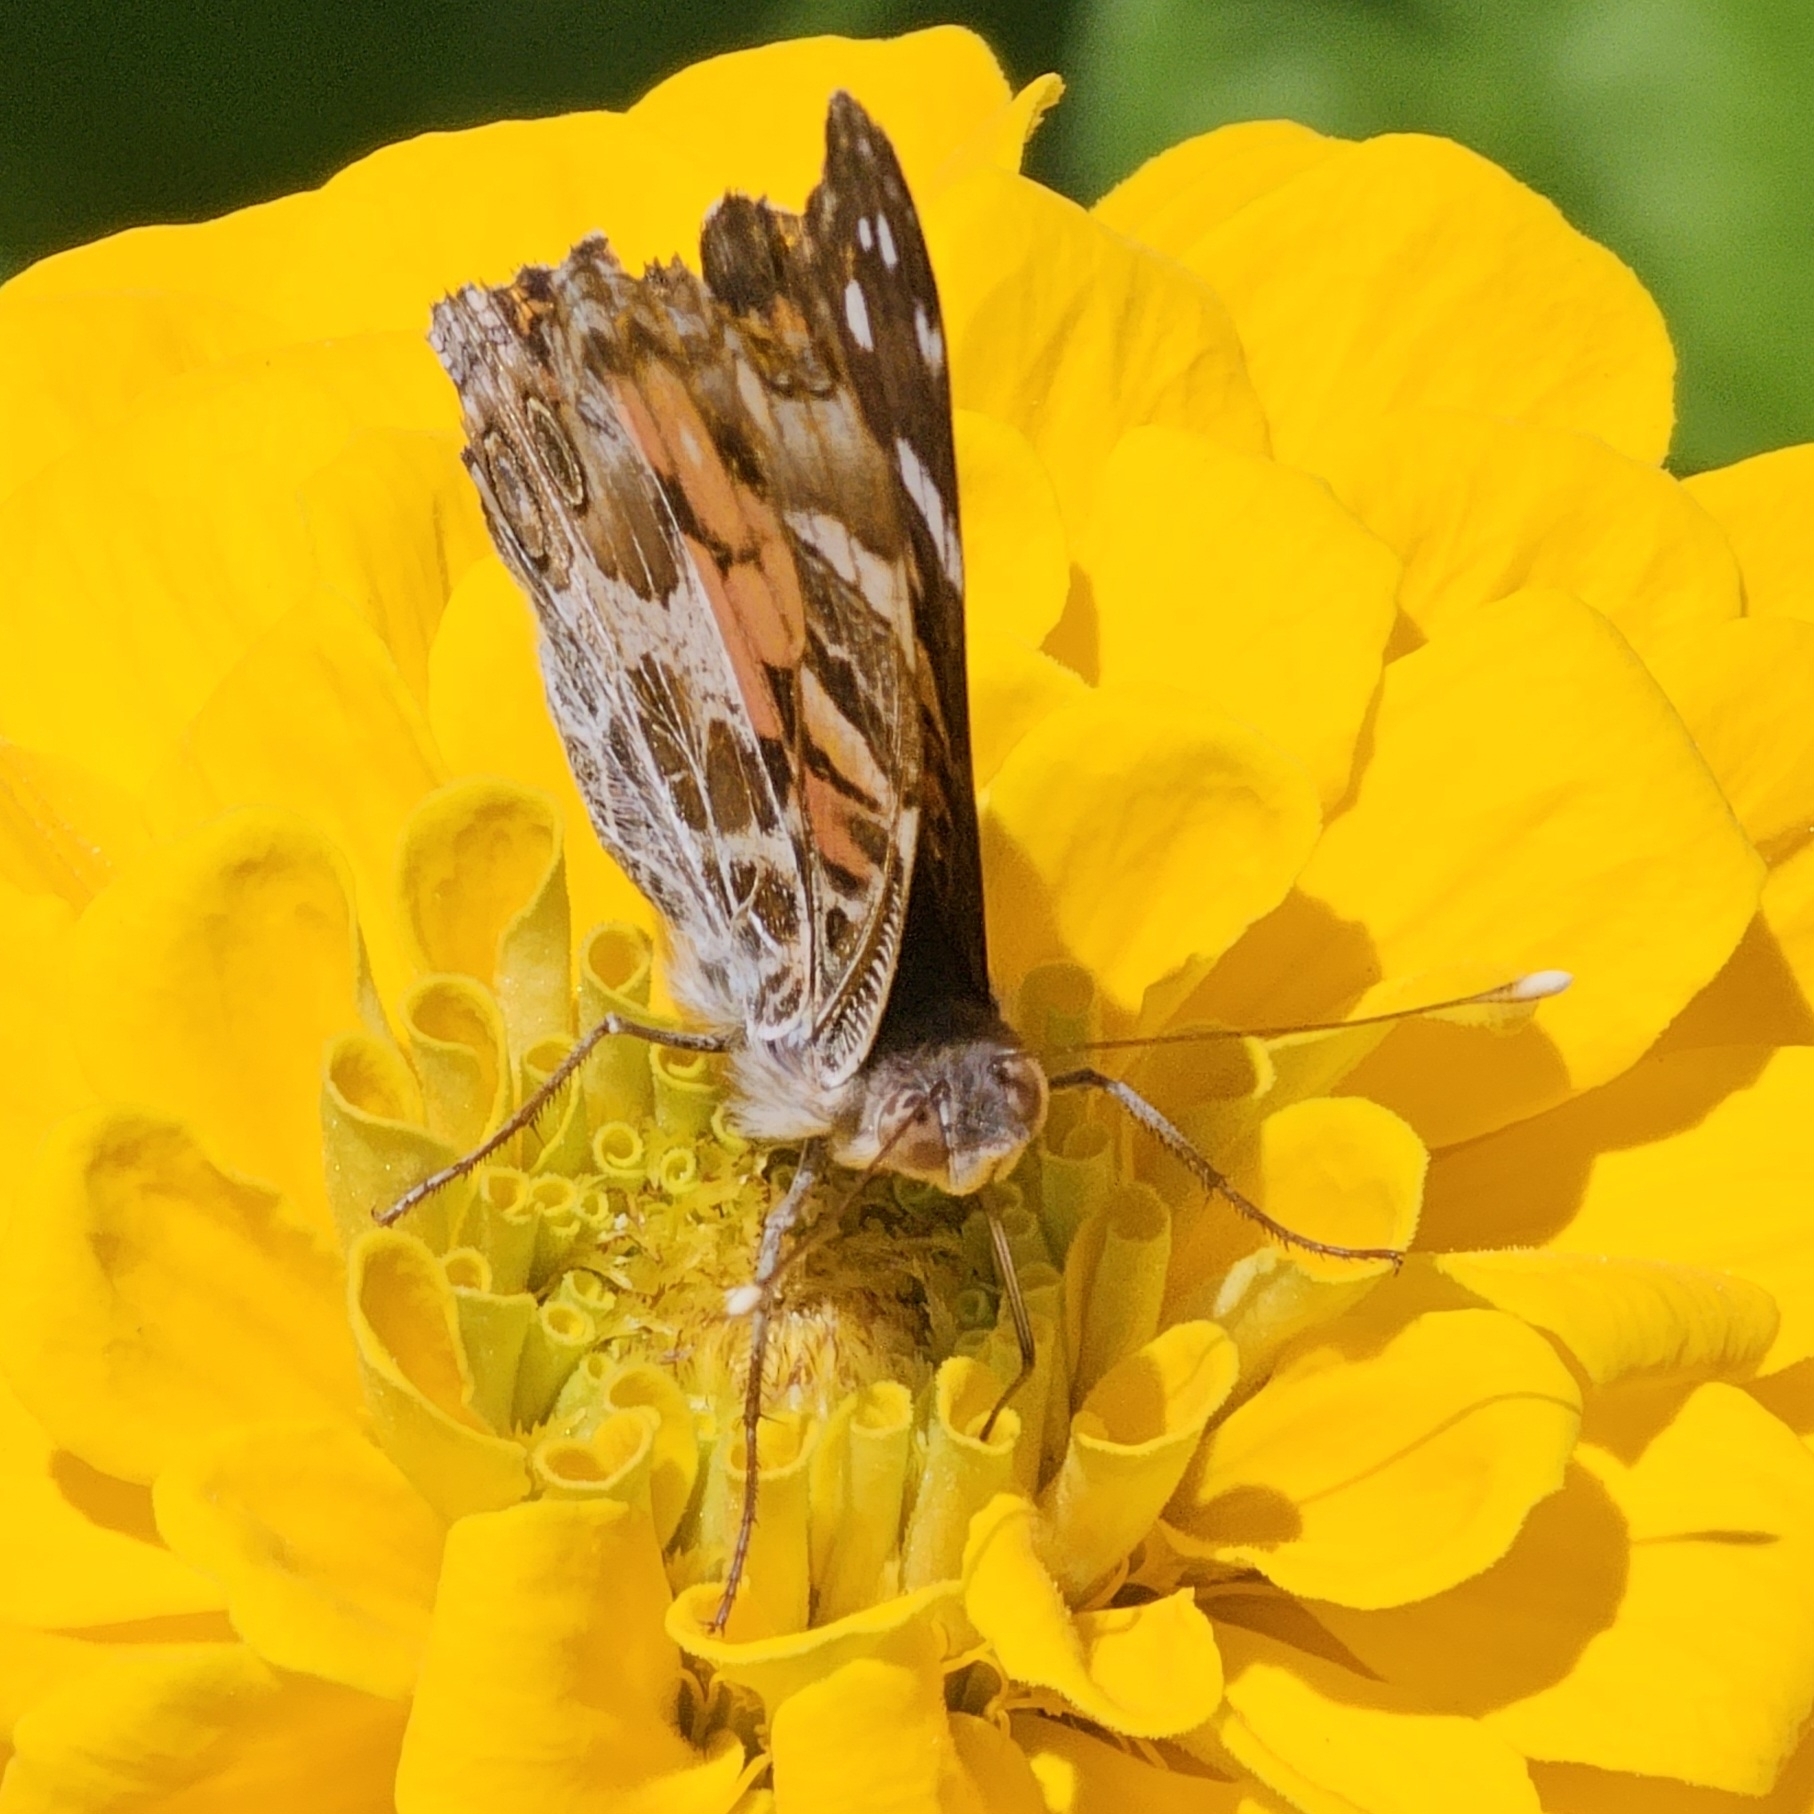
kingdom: Animalia
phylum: Arthropoda
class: Insecta
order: Lepidoptera
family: Nymphalidae
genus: Vanessa
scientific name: Vanessa virginiensis
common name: American lady
